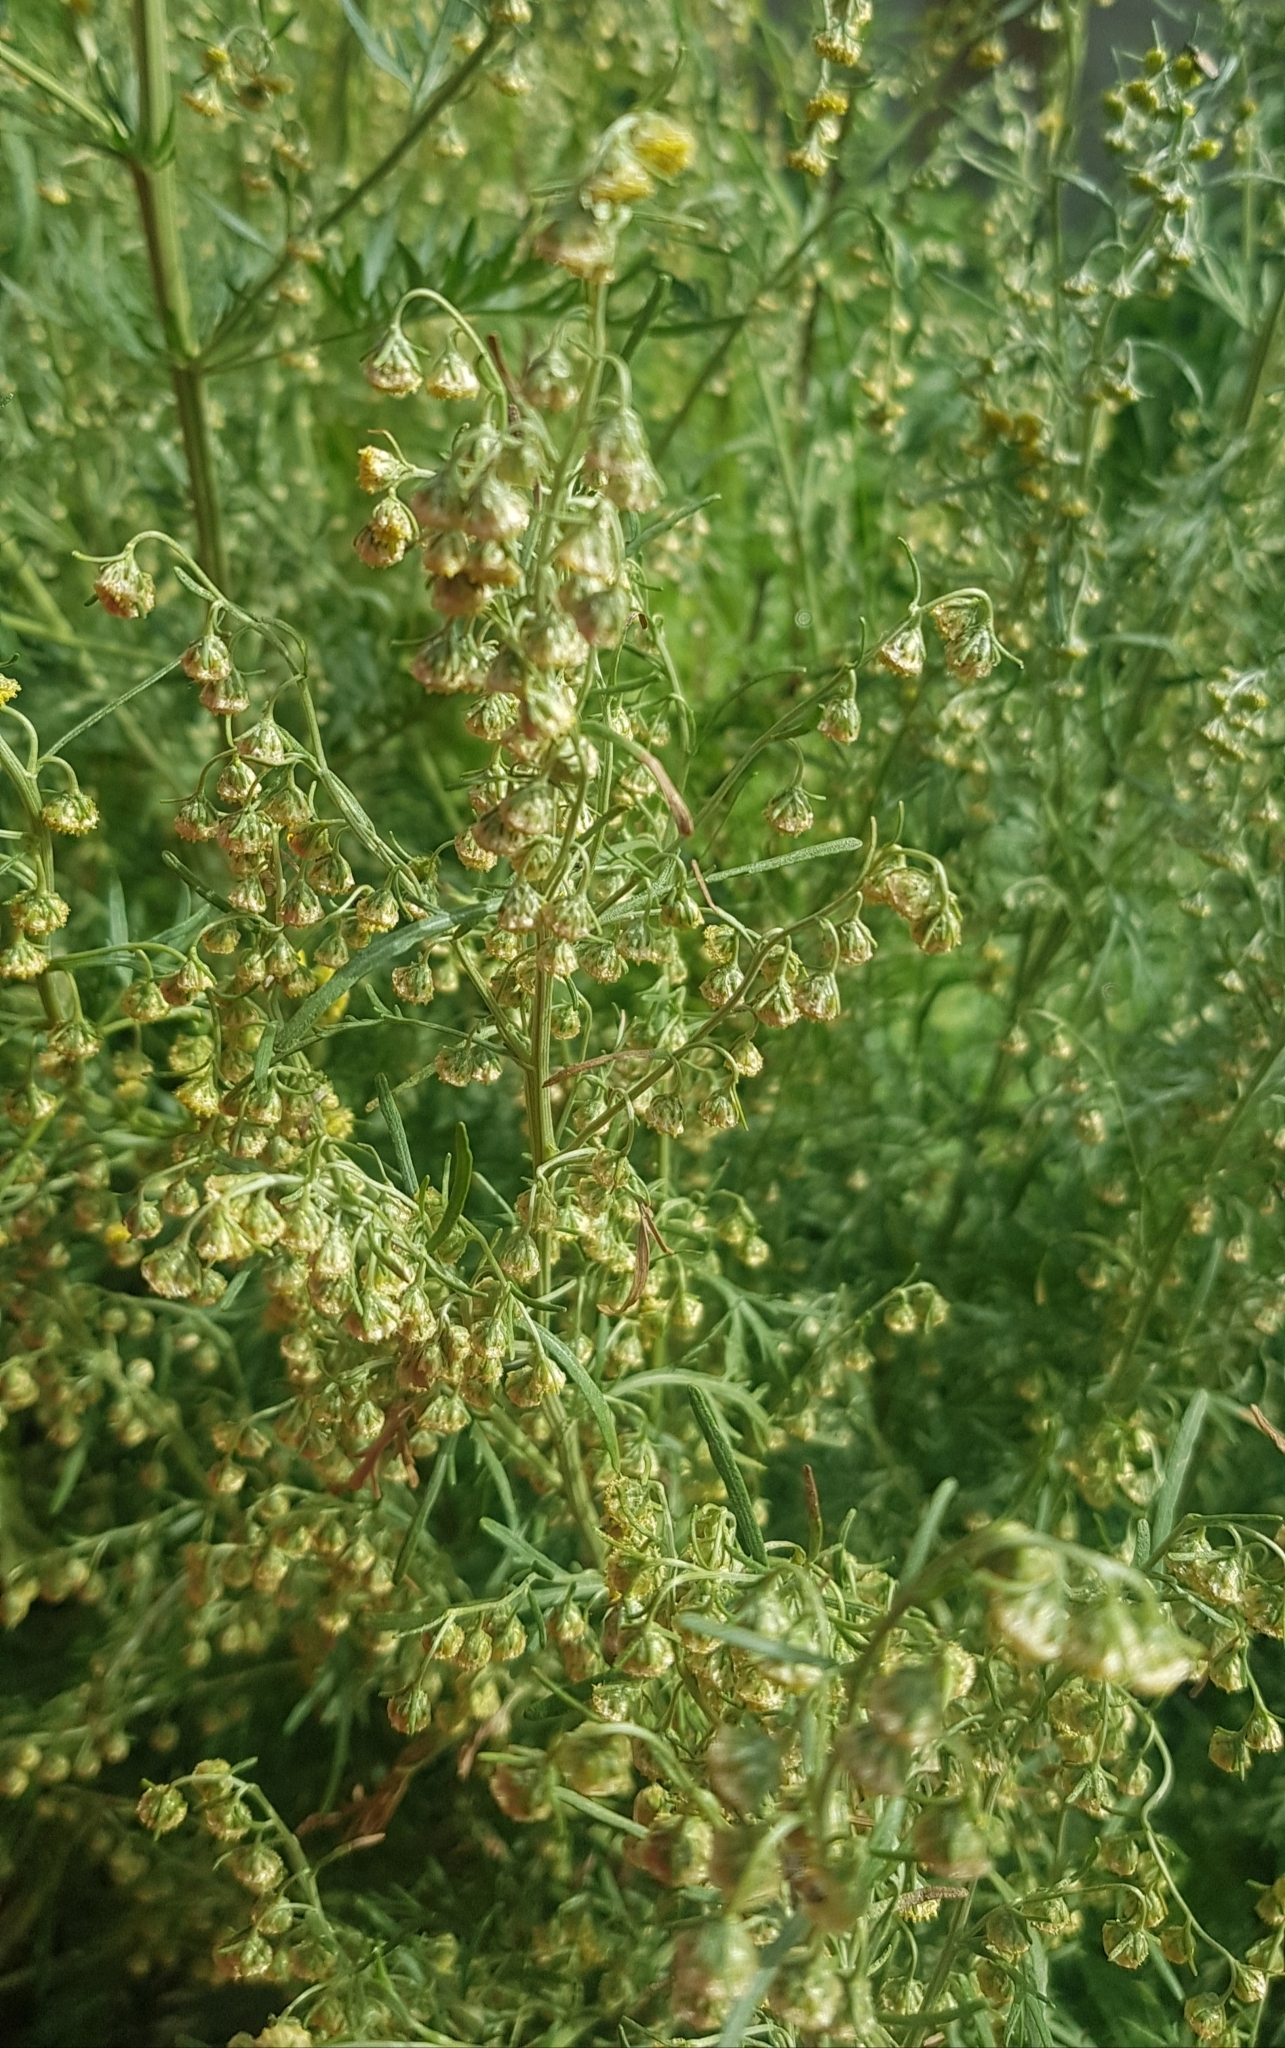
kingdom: Plantae
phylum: Tracheophyta
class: Magnoliopsida
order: Asterales
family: Asteraceae
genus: Artemisia
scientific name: Artemisia macrocephala
